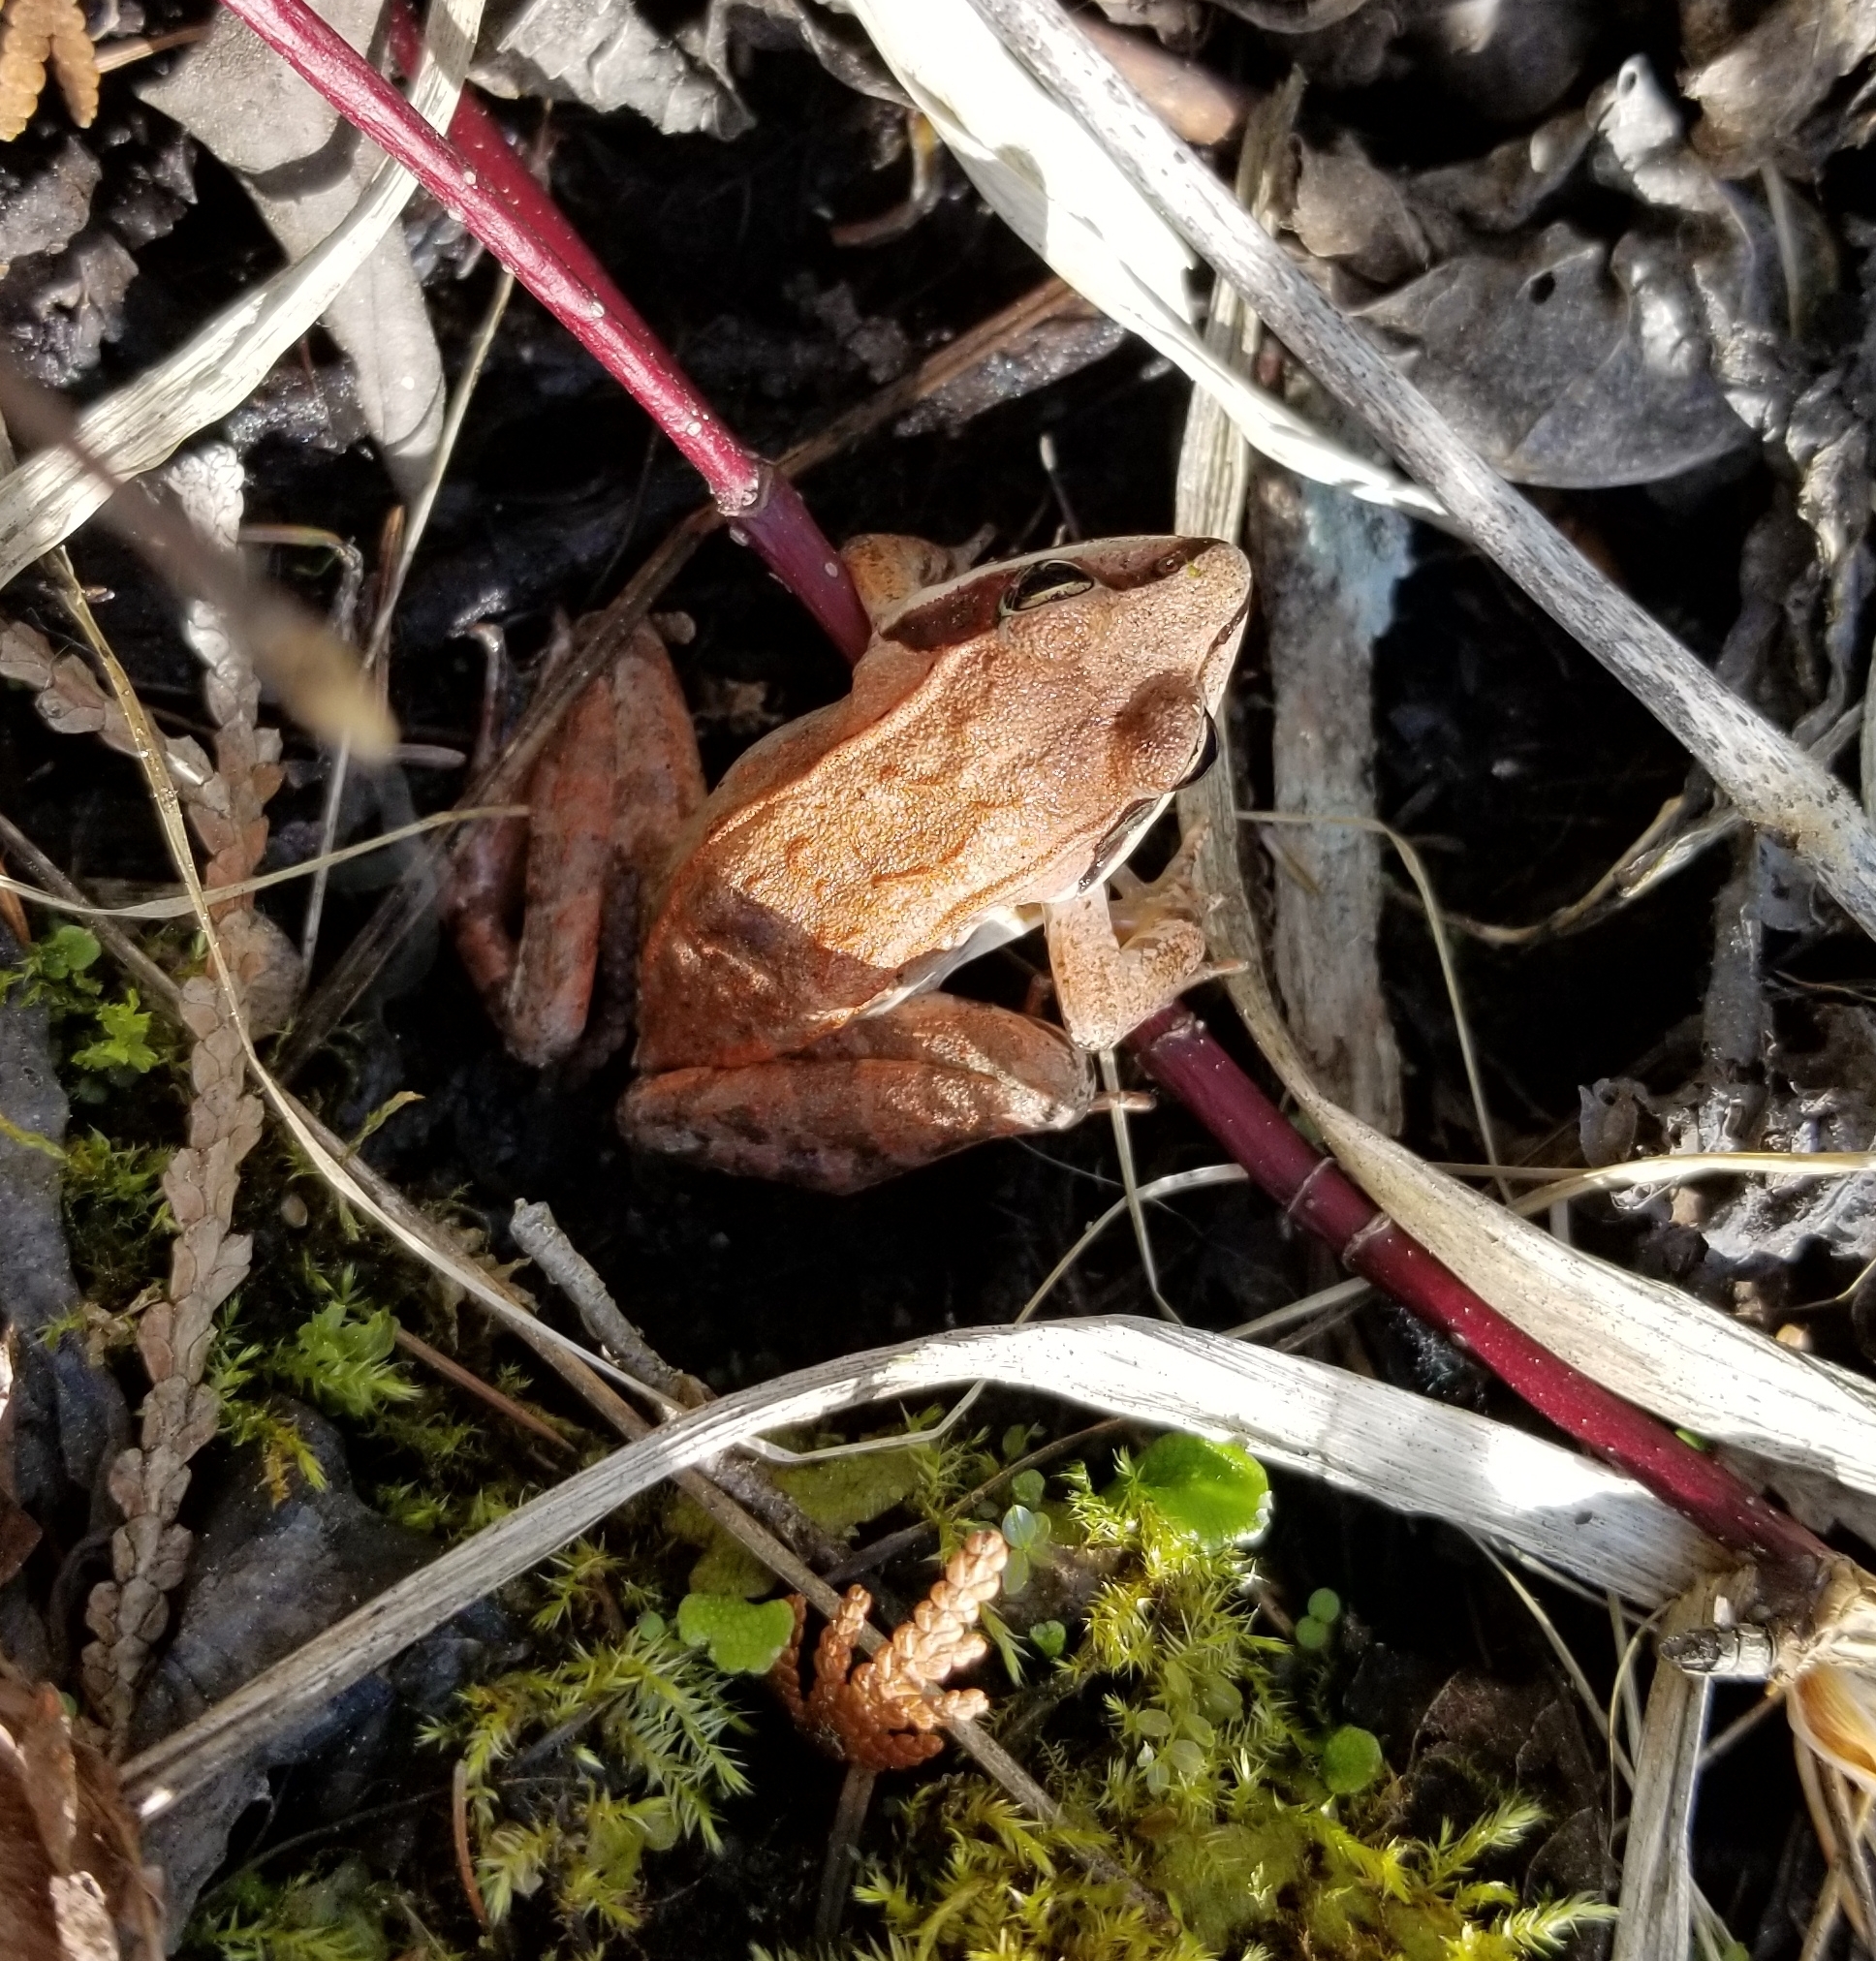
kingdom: Animalia
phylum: Chordata
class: Amphibia
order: Anura
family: Ranidae
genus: Lithobates
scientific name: Lithobates sylvaticus
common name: Wood frog
